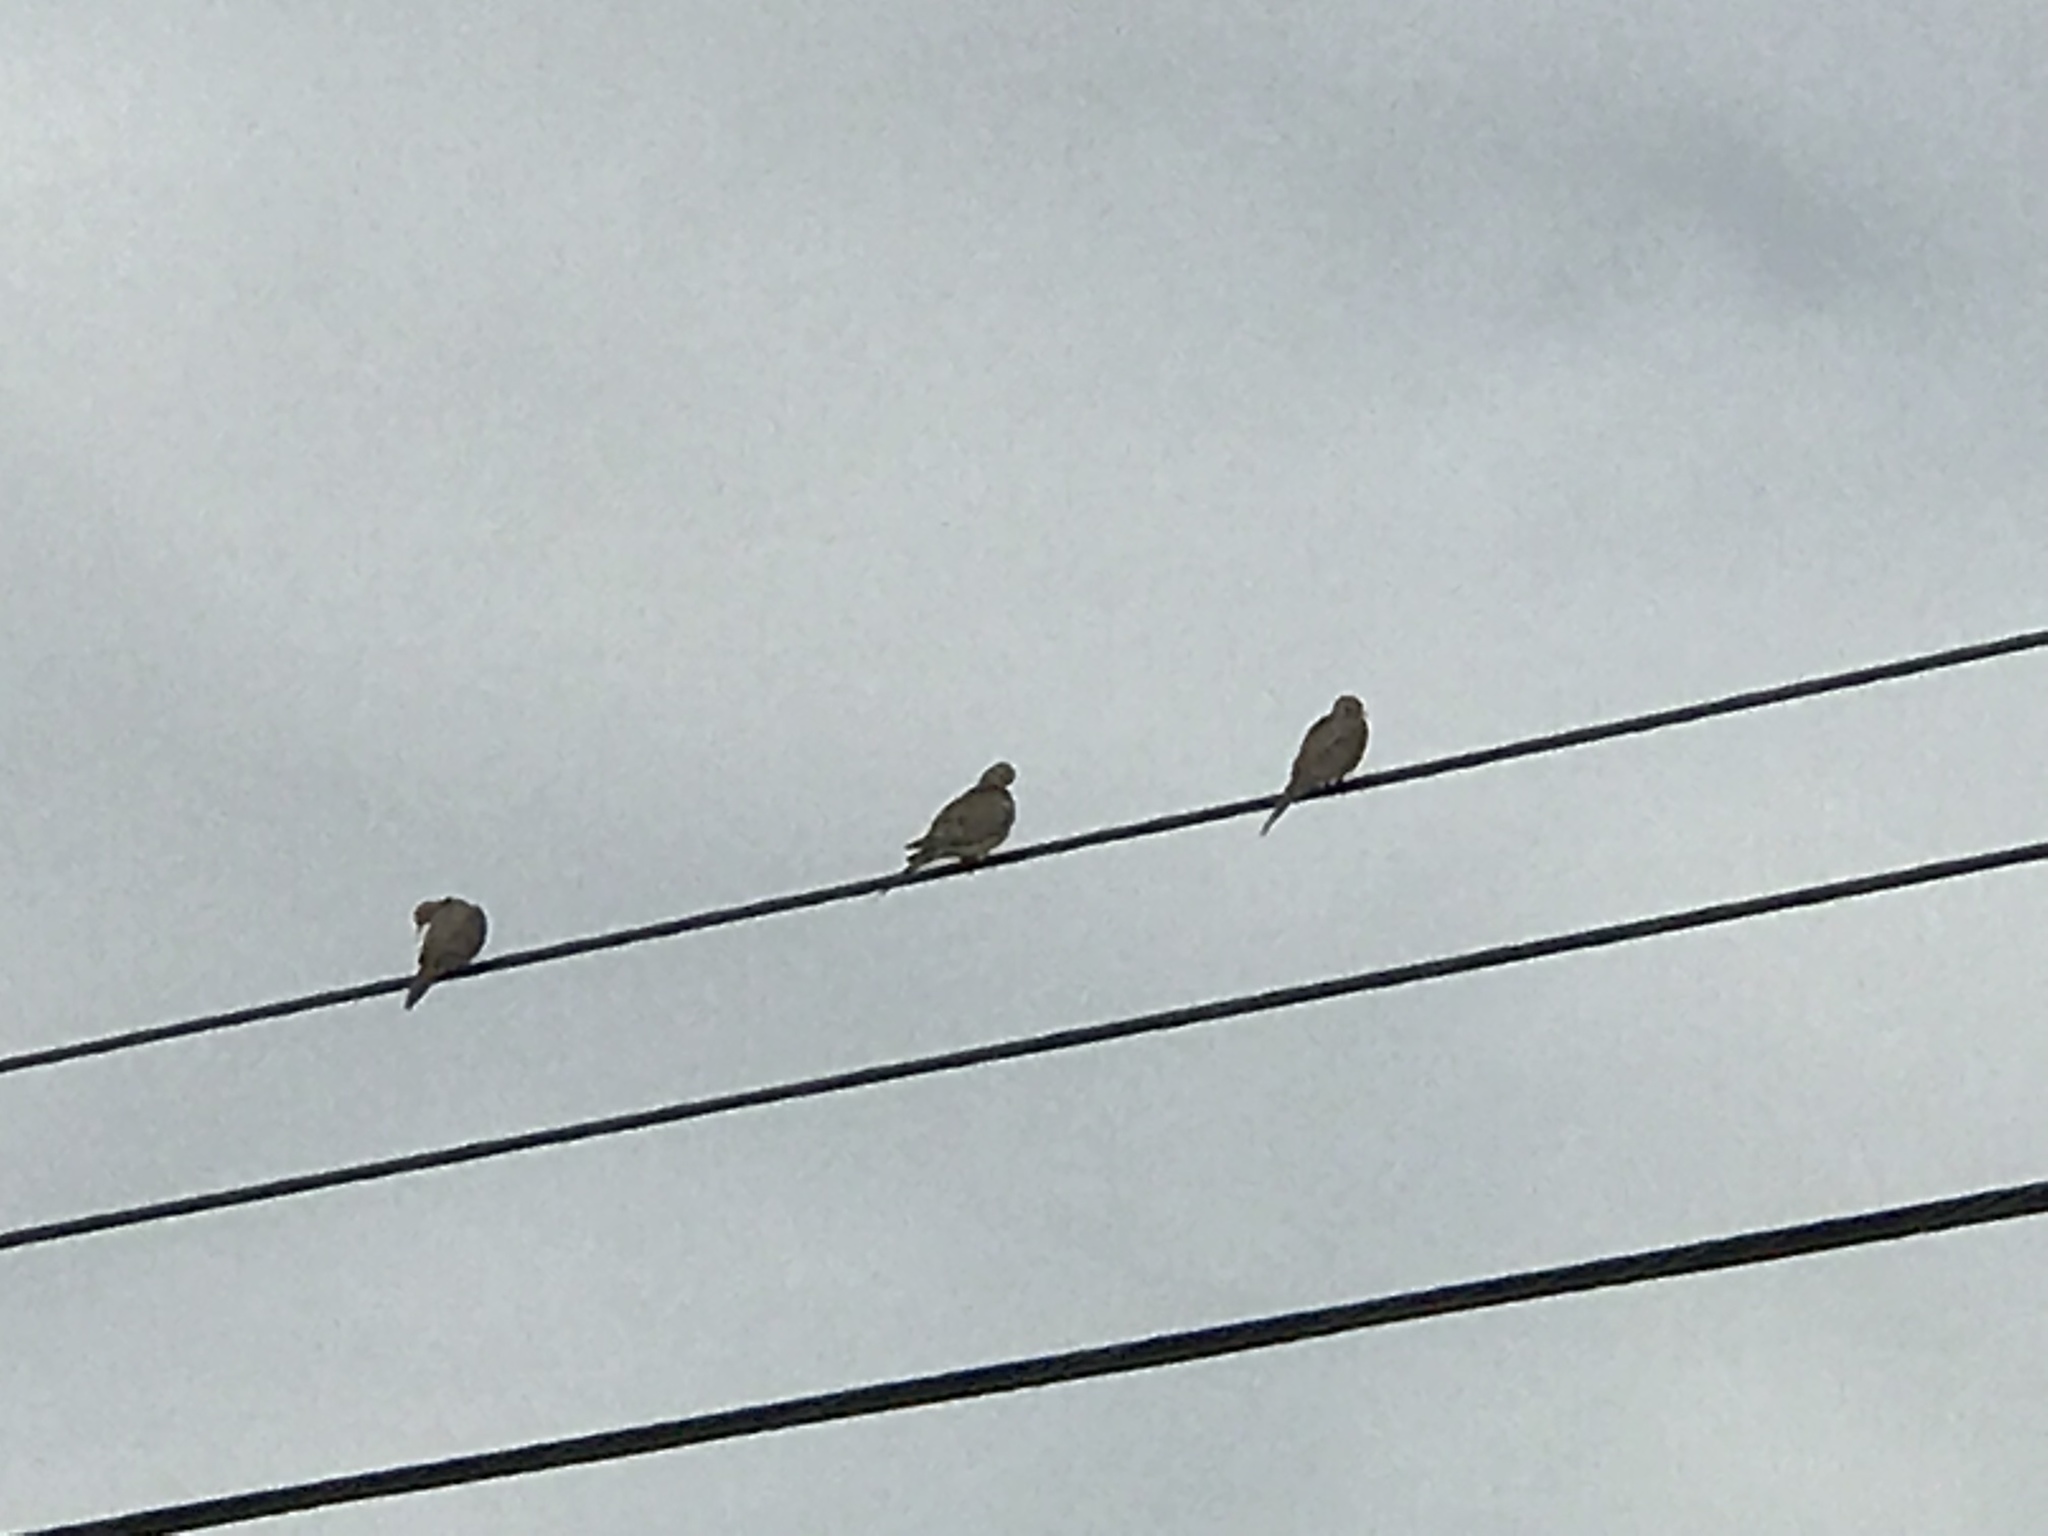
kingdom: Animalia
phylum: Chordata
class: Aves
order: Columbiformes
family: Columbidae
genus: Zenaida
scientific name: Zenaida macroura
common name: Mourning dove
